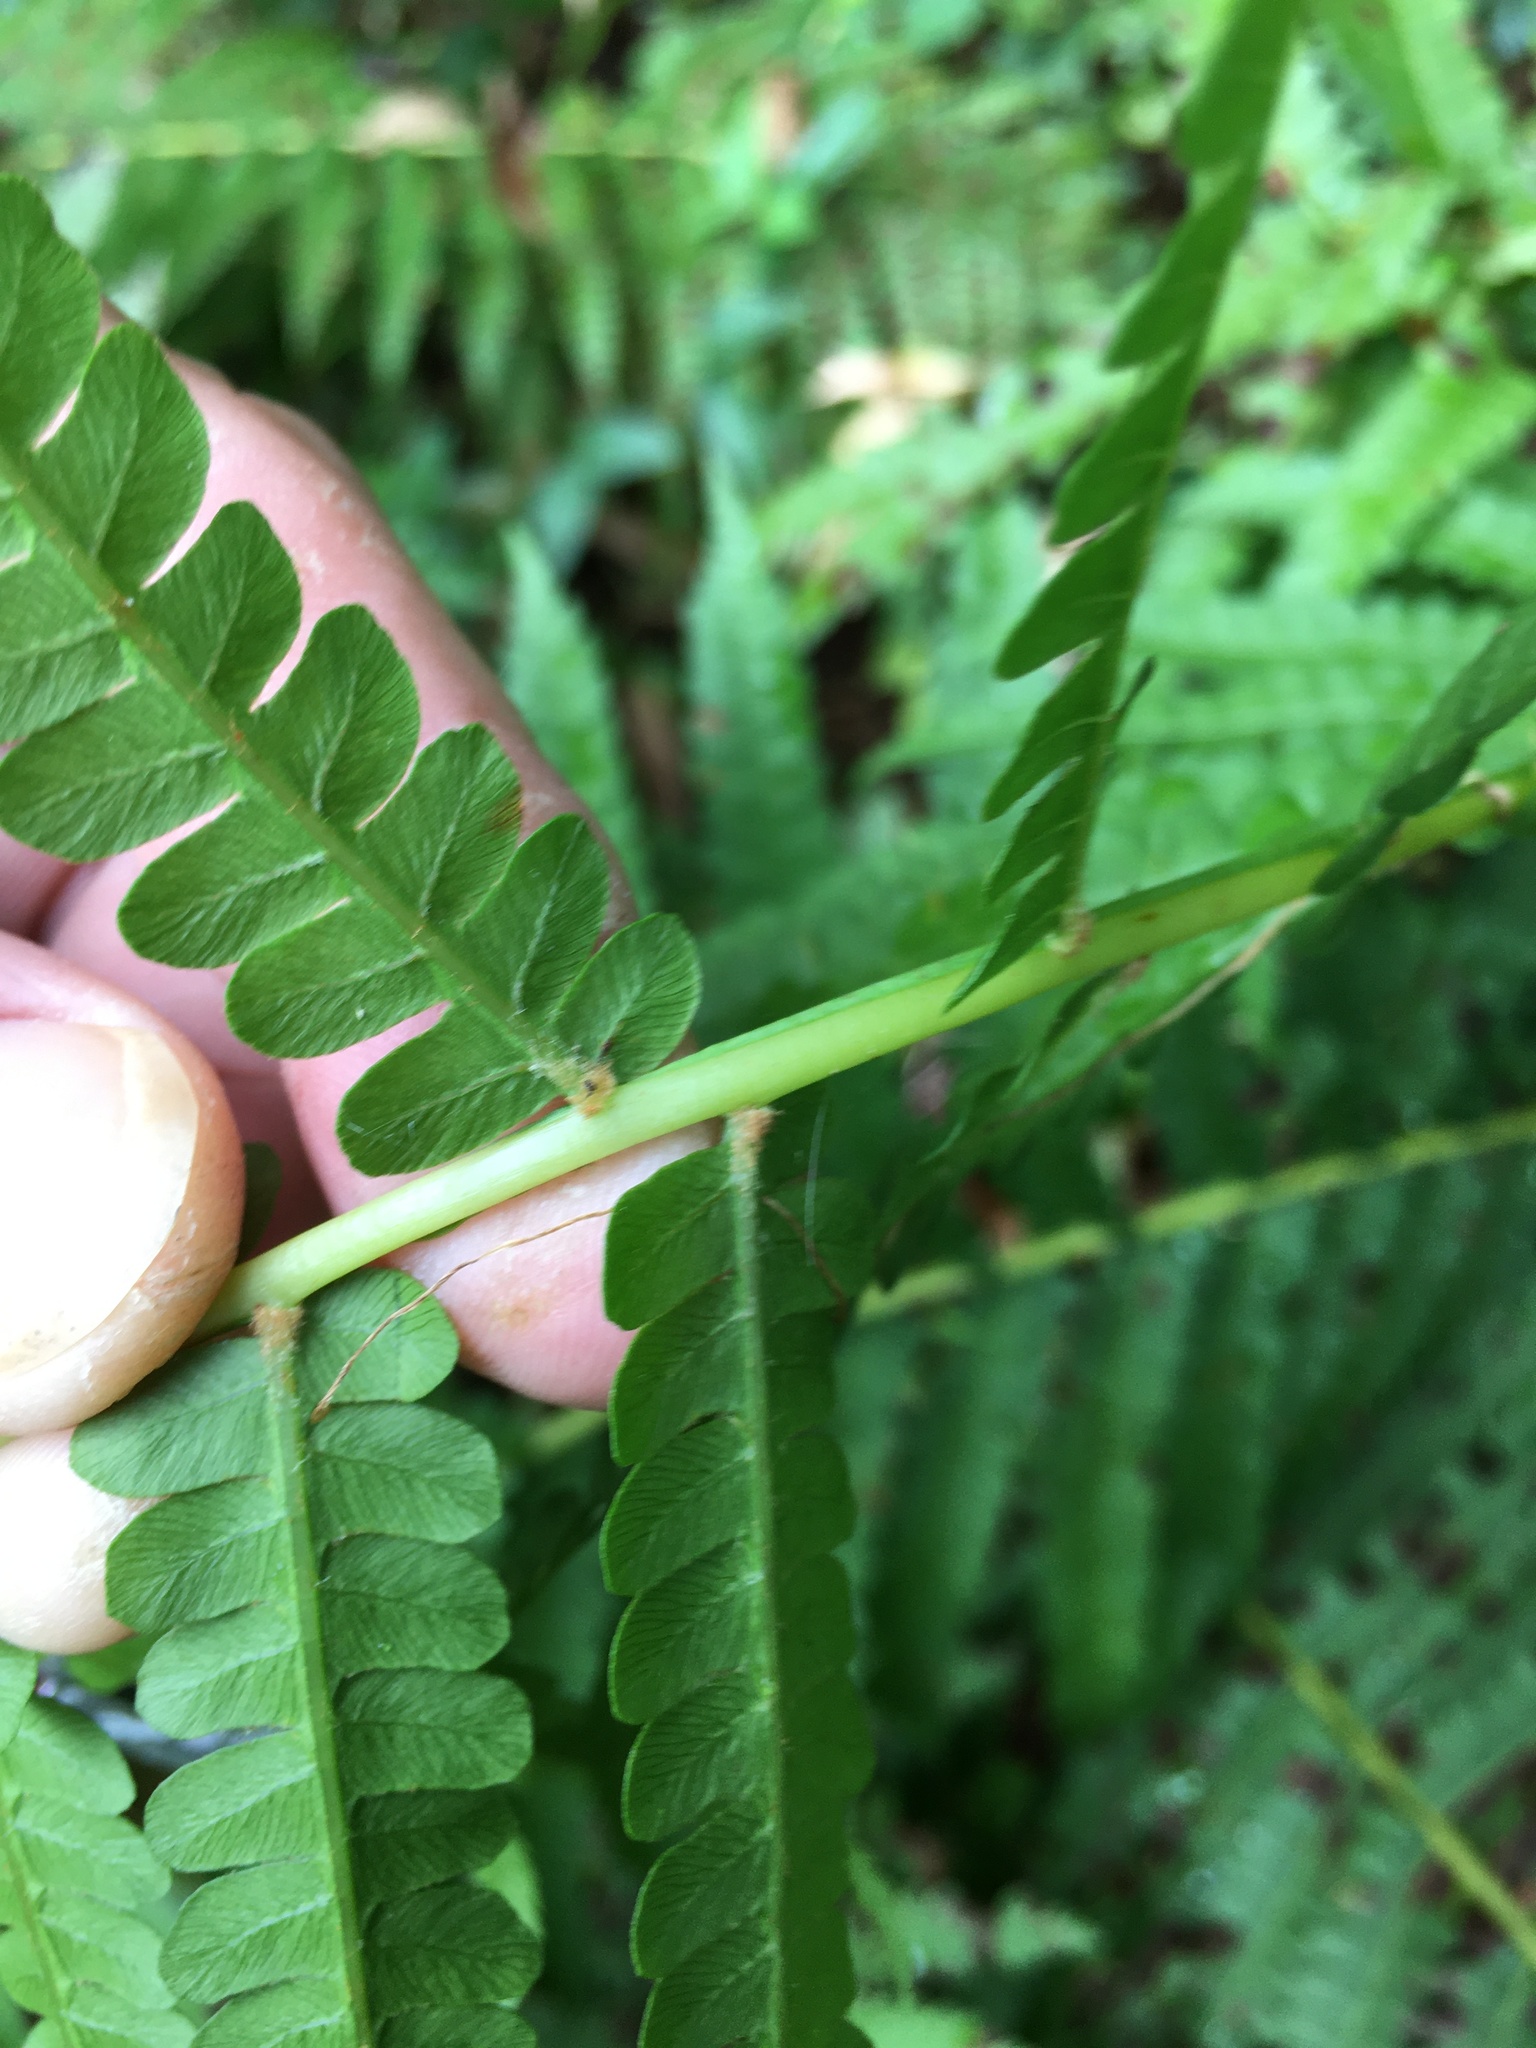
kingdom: Plantae
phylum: Tracheophyta
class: Polypodiopsida
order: Osmundales
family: Osmundaceae
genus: Osmundastrum
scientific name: Osmundastrum cinnamomeum
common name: Cinnamon fern
